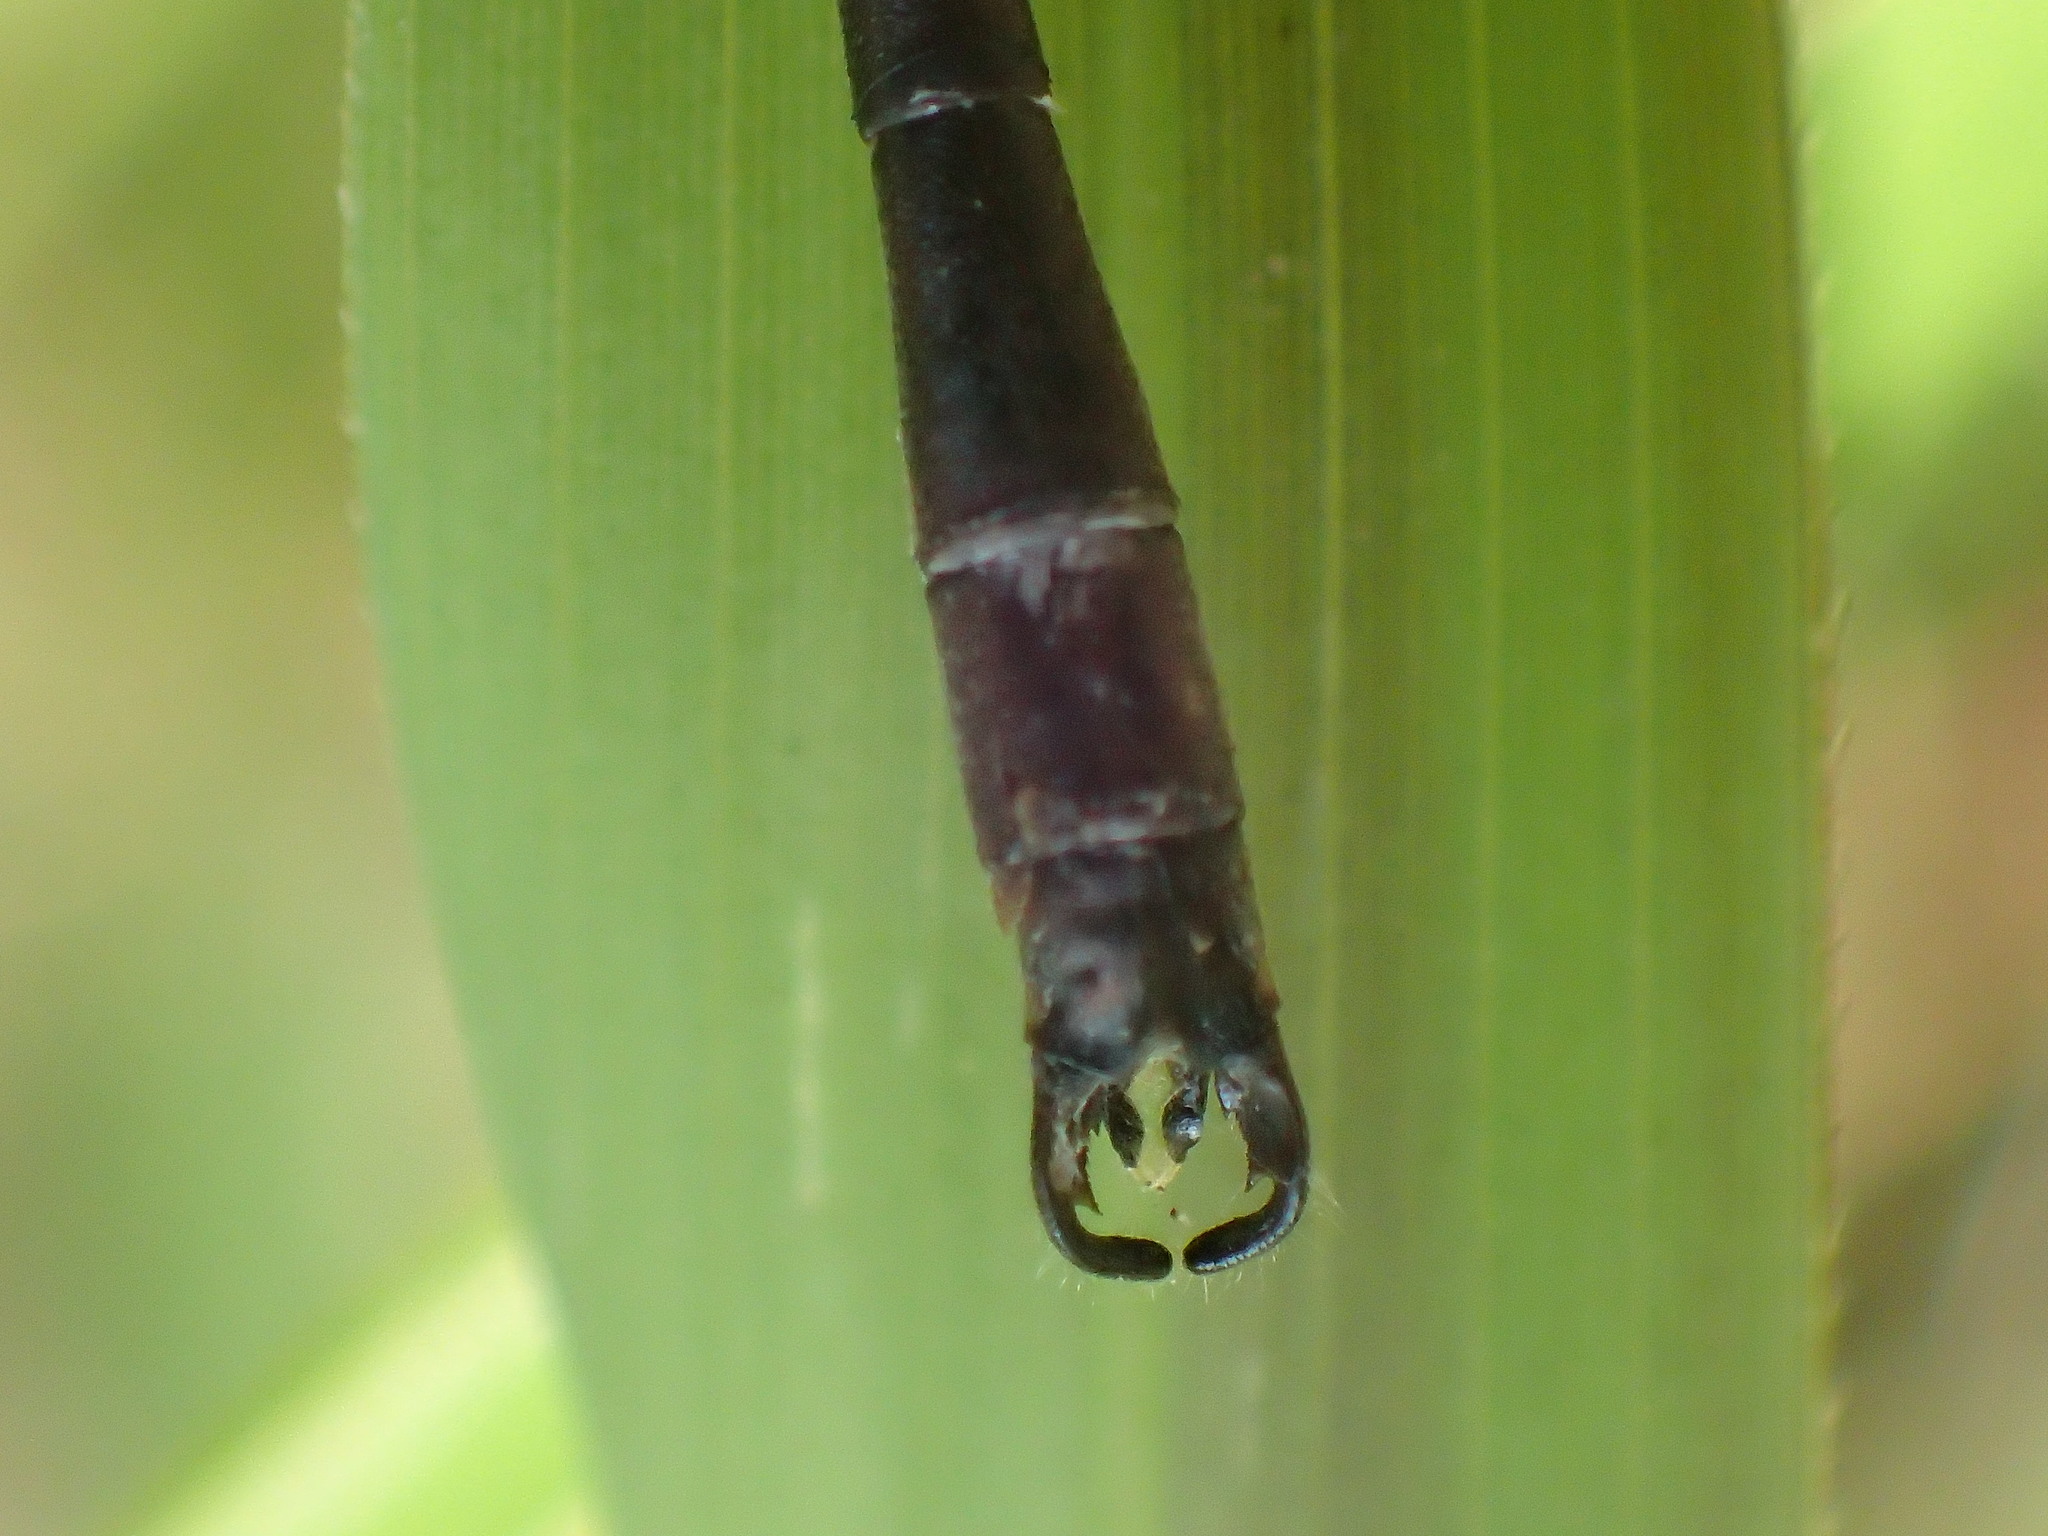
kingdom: Animalia
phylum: Arthropoda
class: Insecta
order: Odonata
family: Lestidae
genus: Lestes
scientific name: Lestes rectangularis
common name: Slender spreadwing
